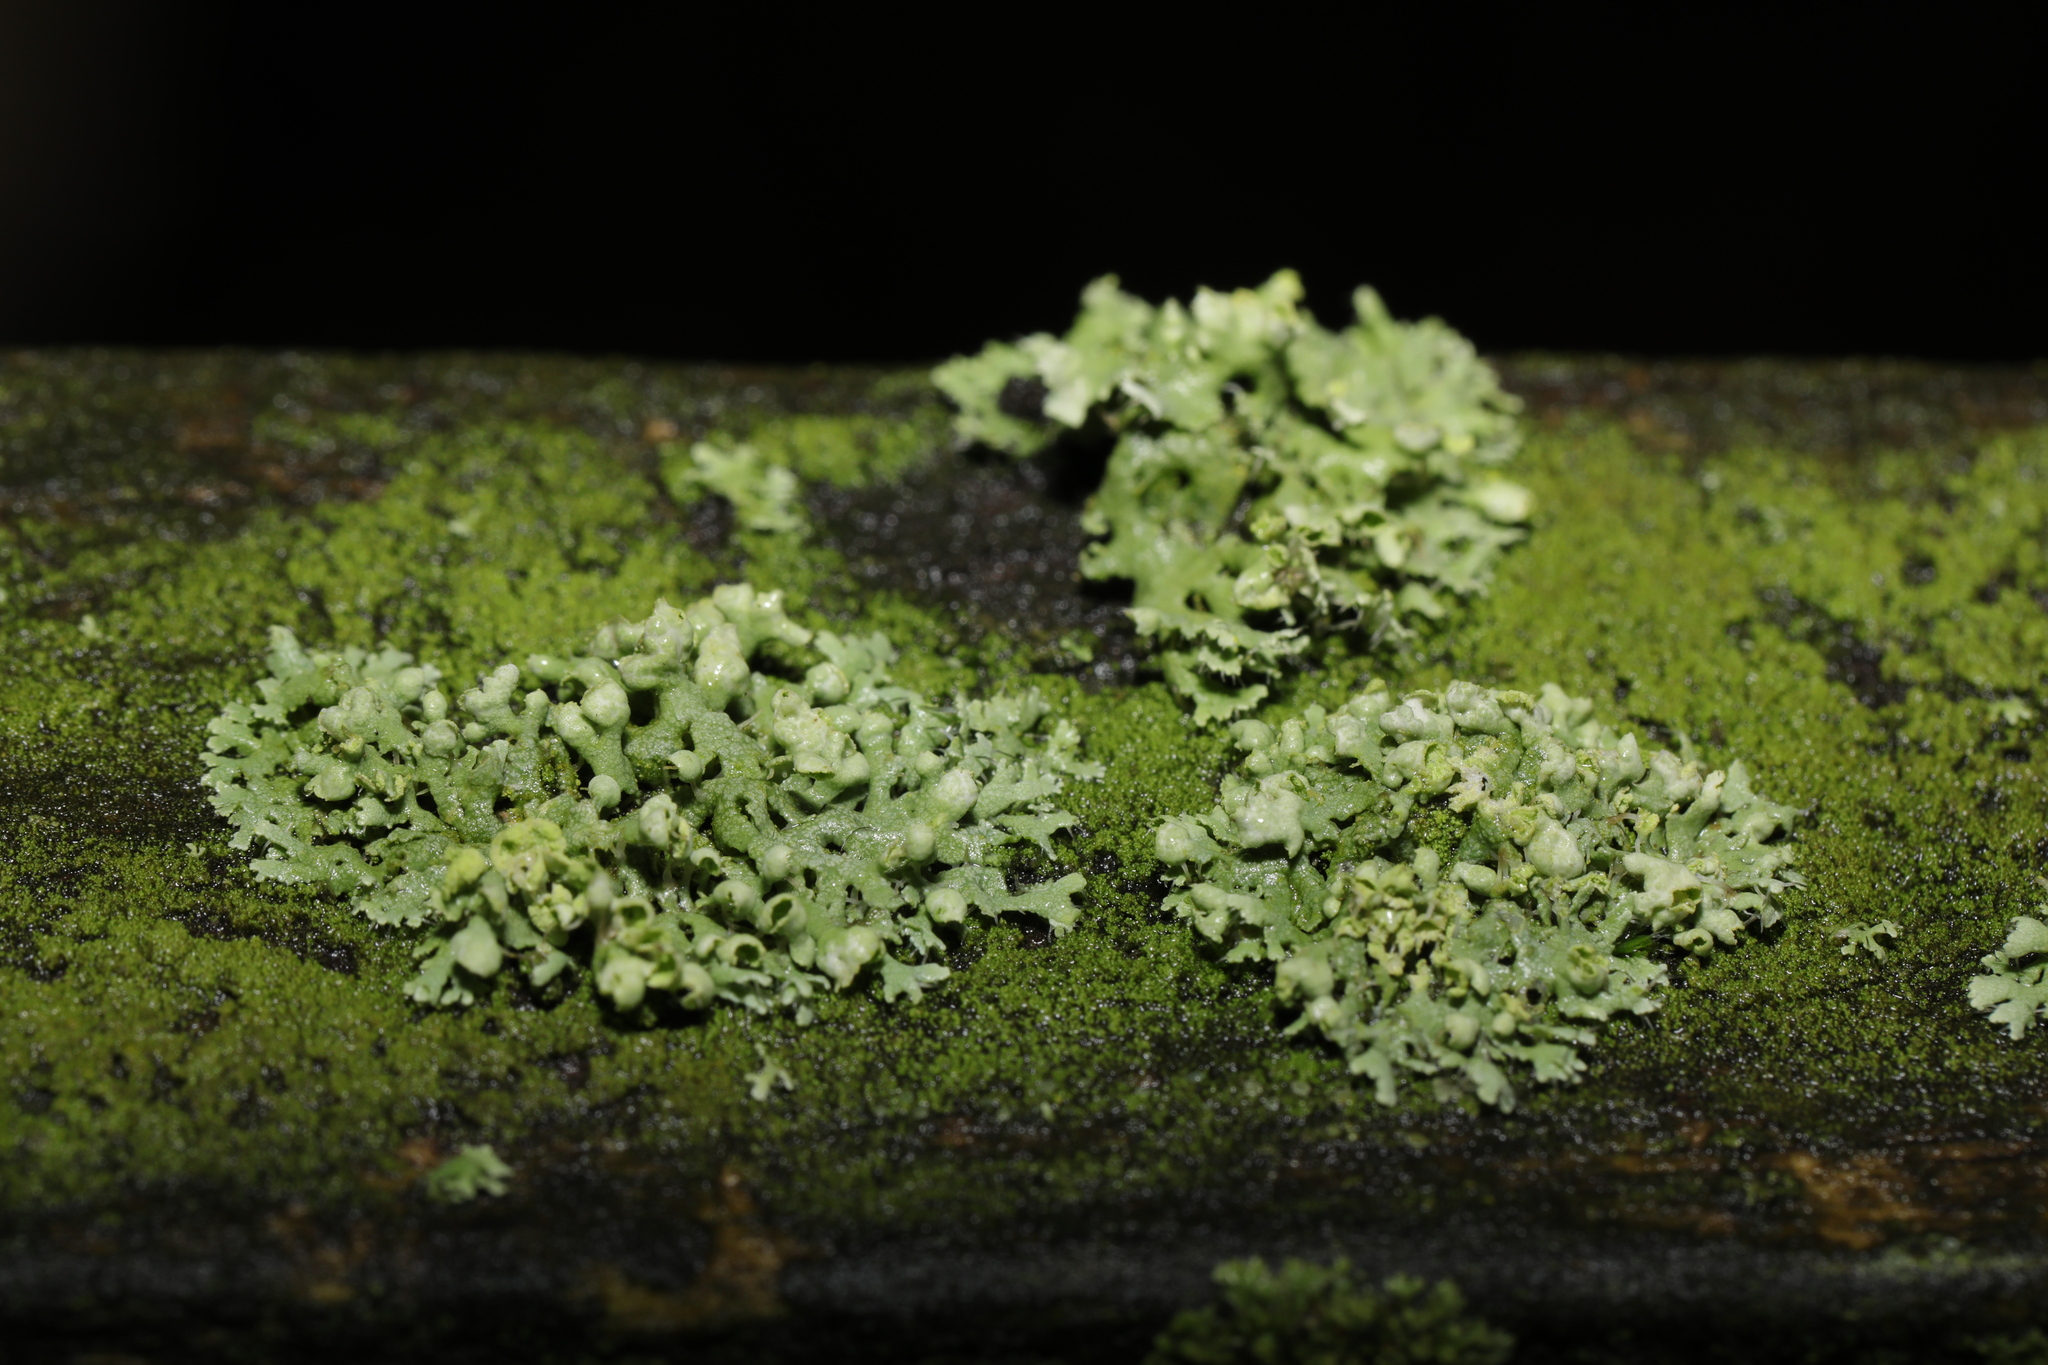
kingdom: Fungi
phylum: Ascomycota
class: Lecanoromycetes
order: Caliciales
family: Physciaceae
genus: Physcia
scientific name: Physcia adscendens
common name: Hooded rosette lichen
